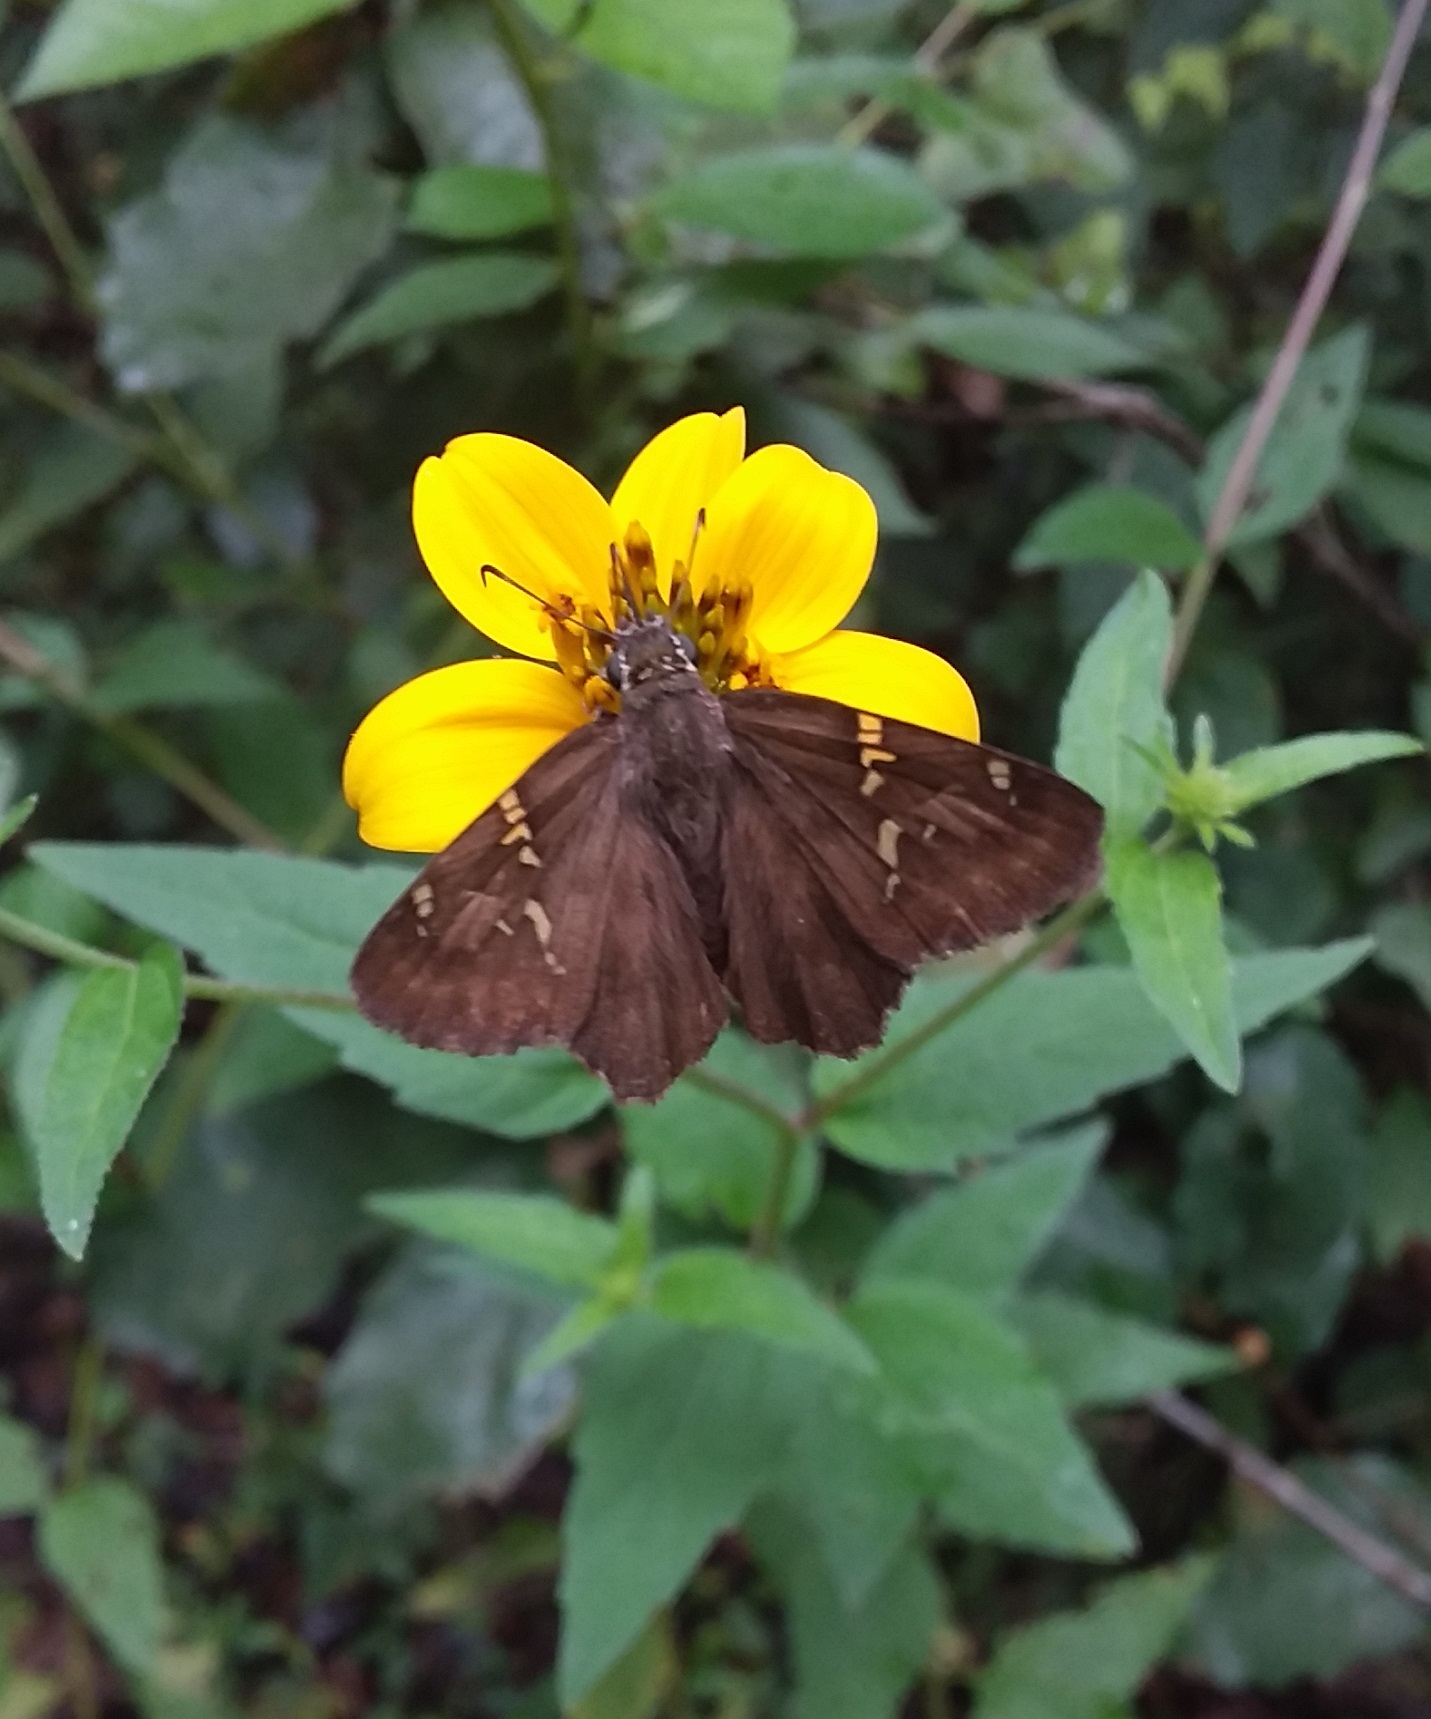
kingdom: Animalia
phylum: Arthropoda
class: Insecta
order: Lepidoptera
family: Hesperiidae
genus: Autochton
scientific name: Autochton potrillo
